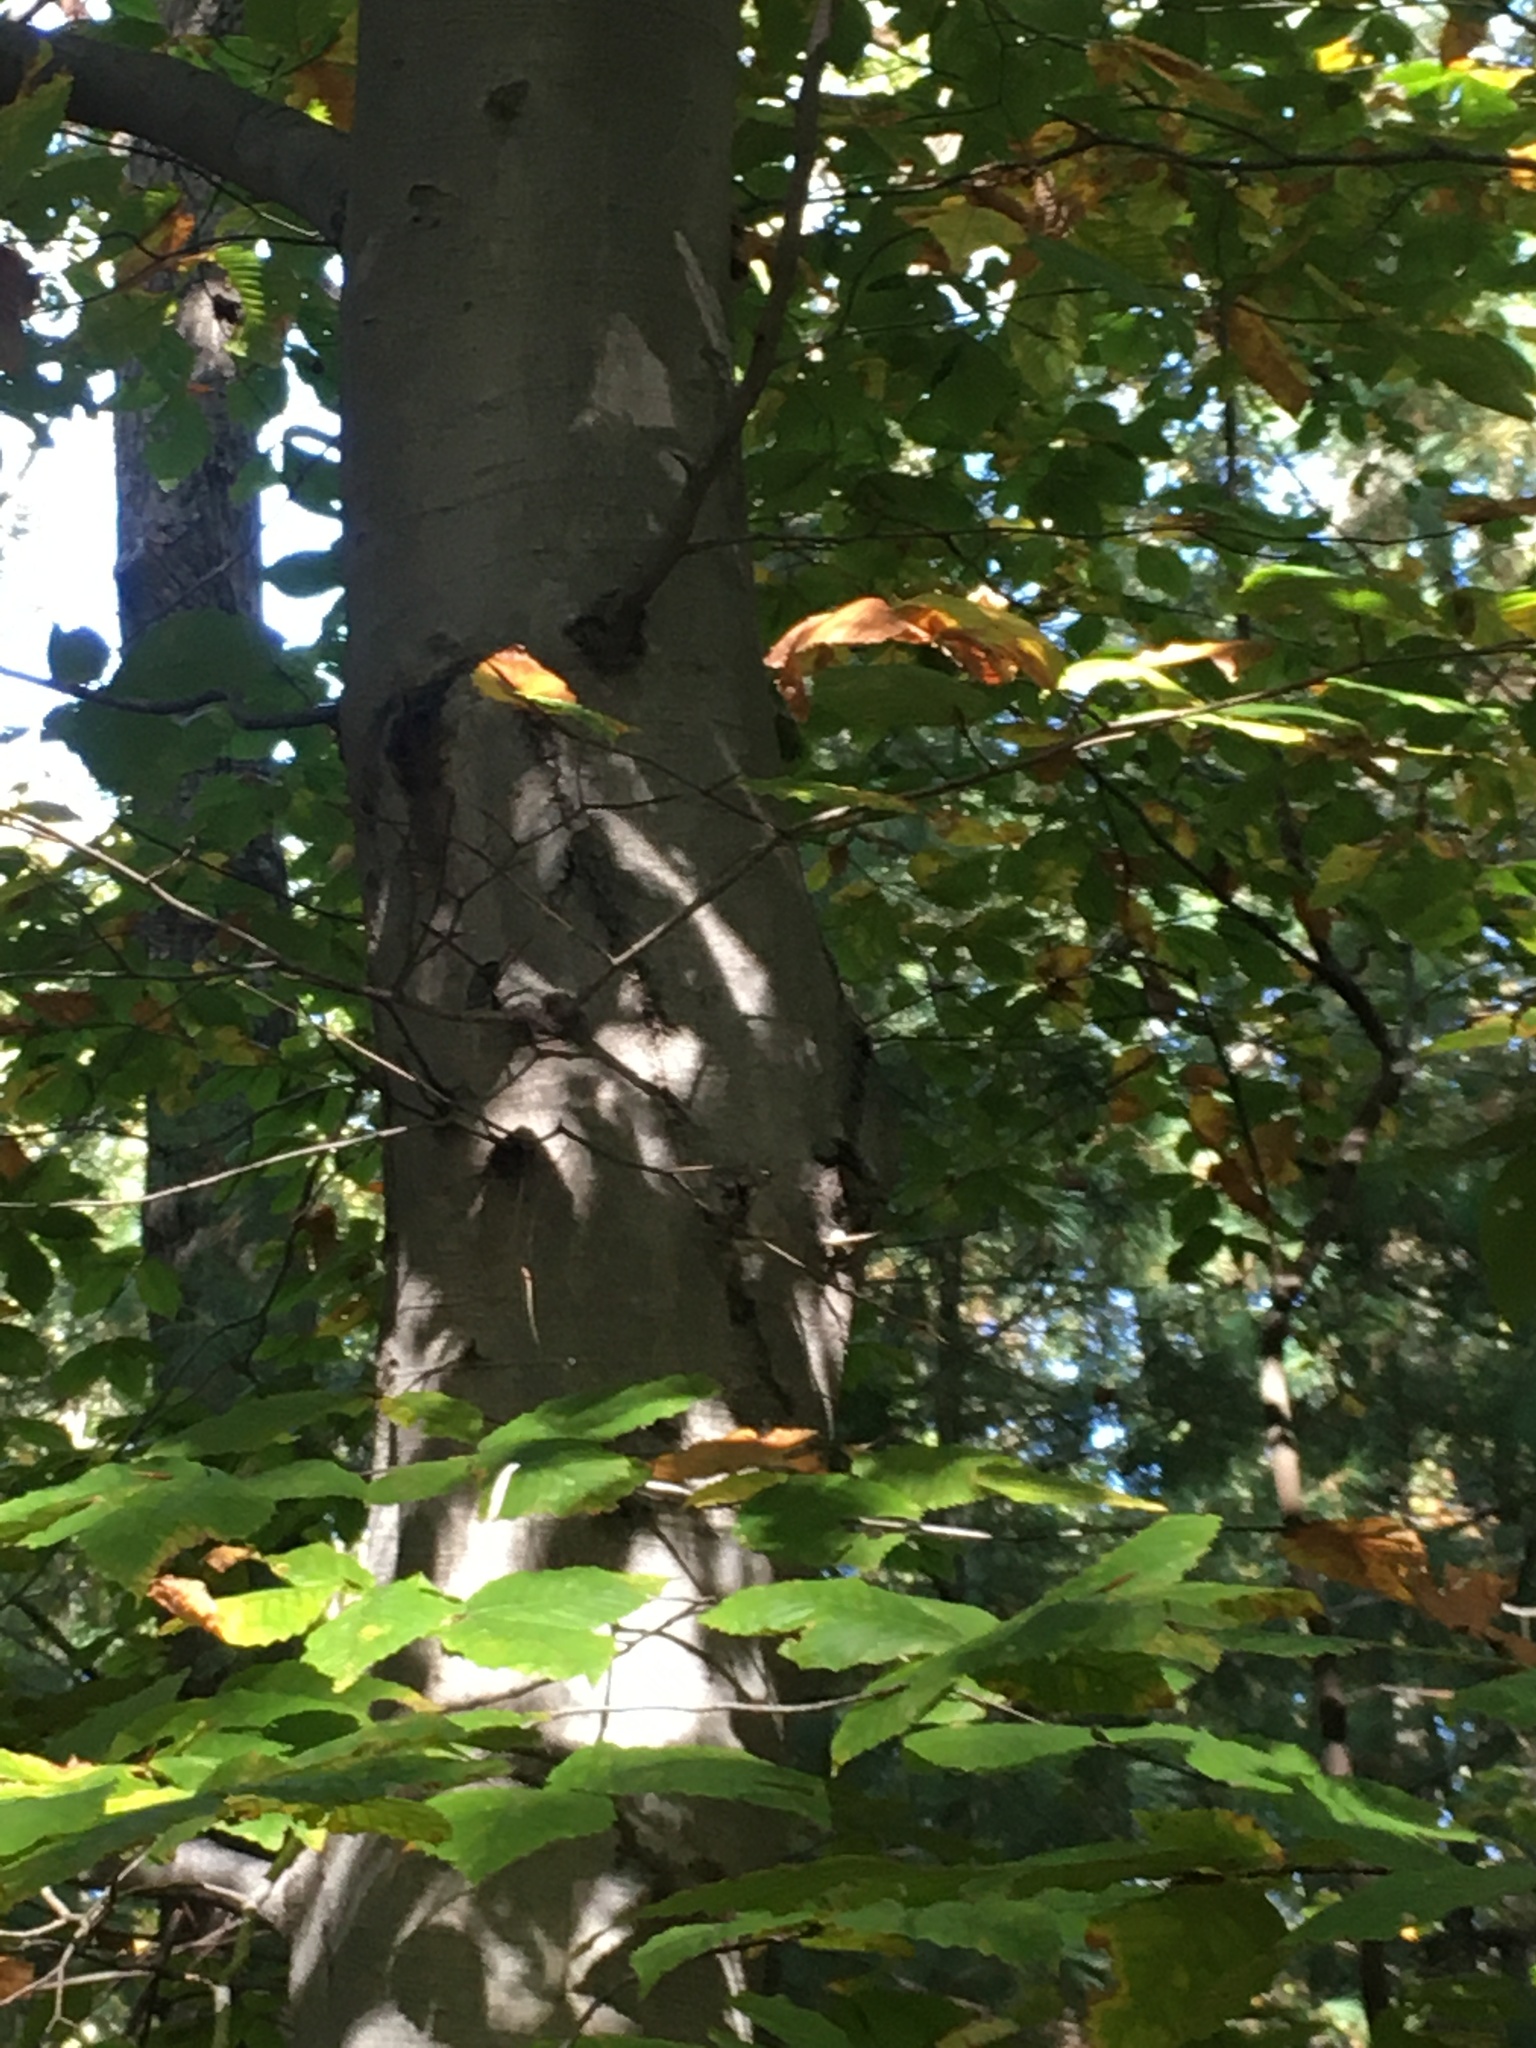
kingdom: Plantae
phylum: Tracheophyta
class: Magnoliopsida
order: Fagales
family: Fagaceae
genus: Fagus
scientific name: Fagus grandifolia
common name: American beech
